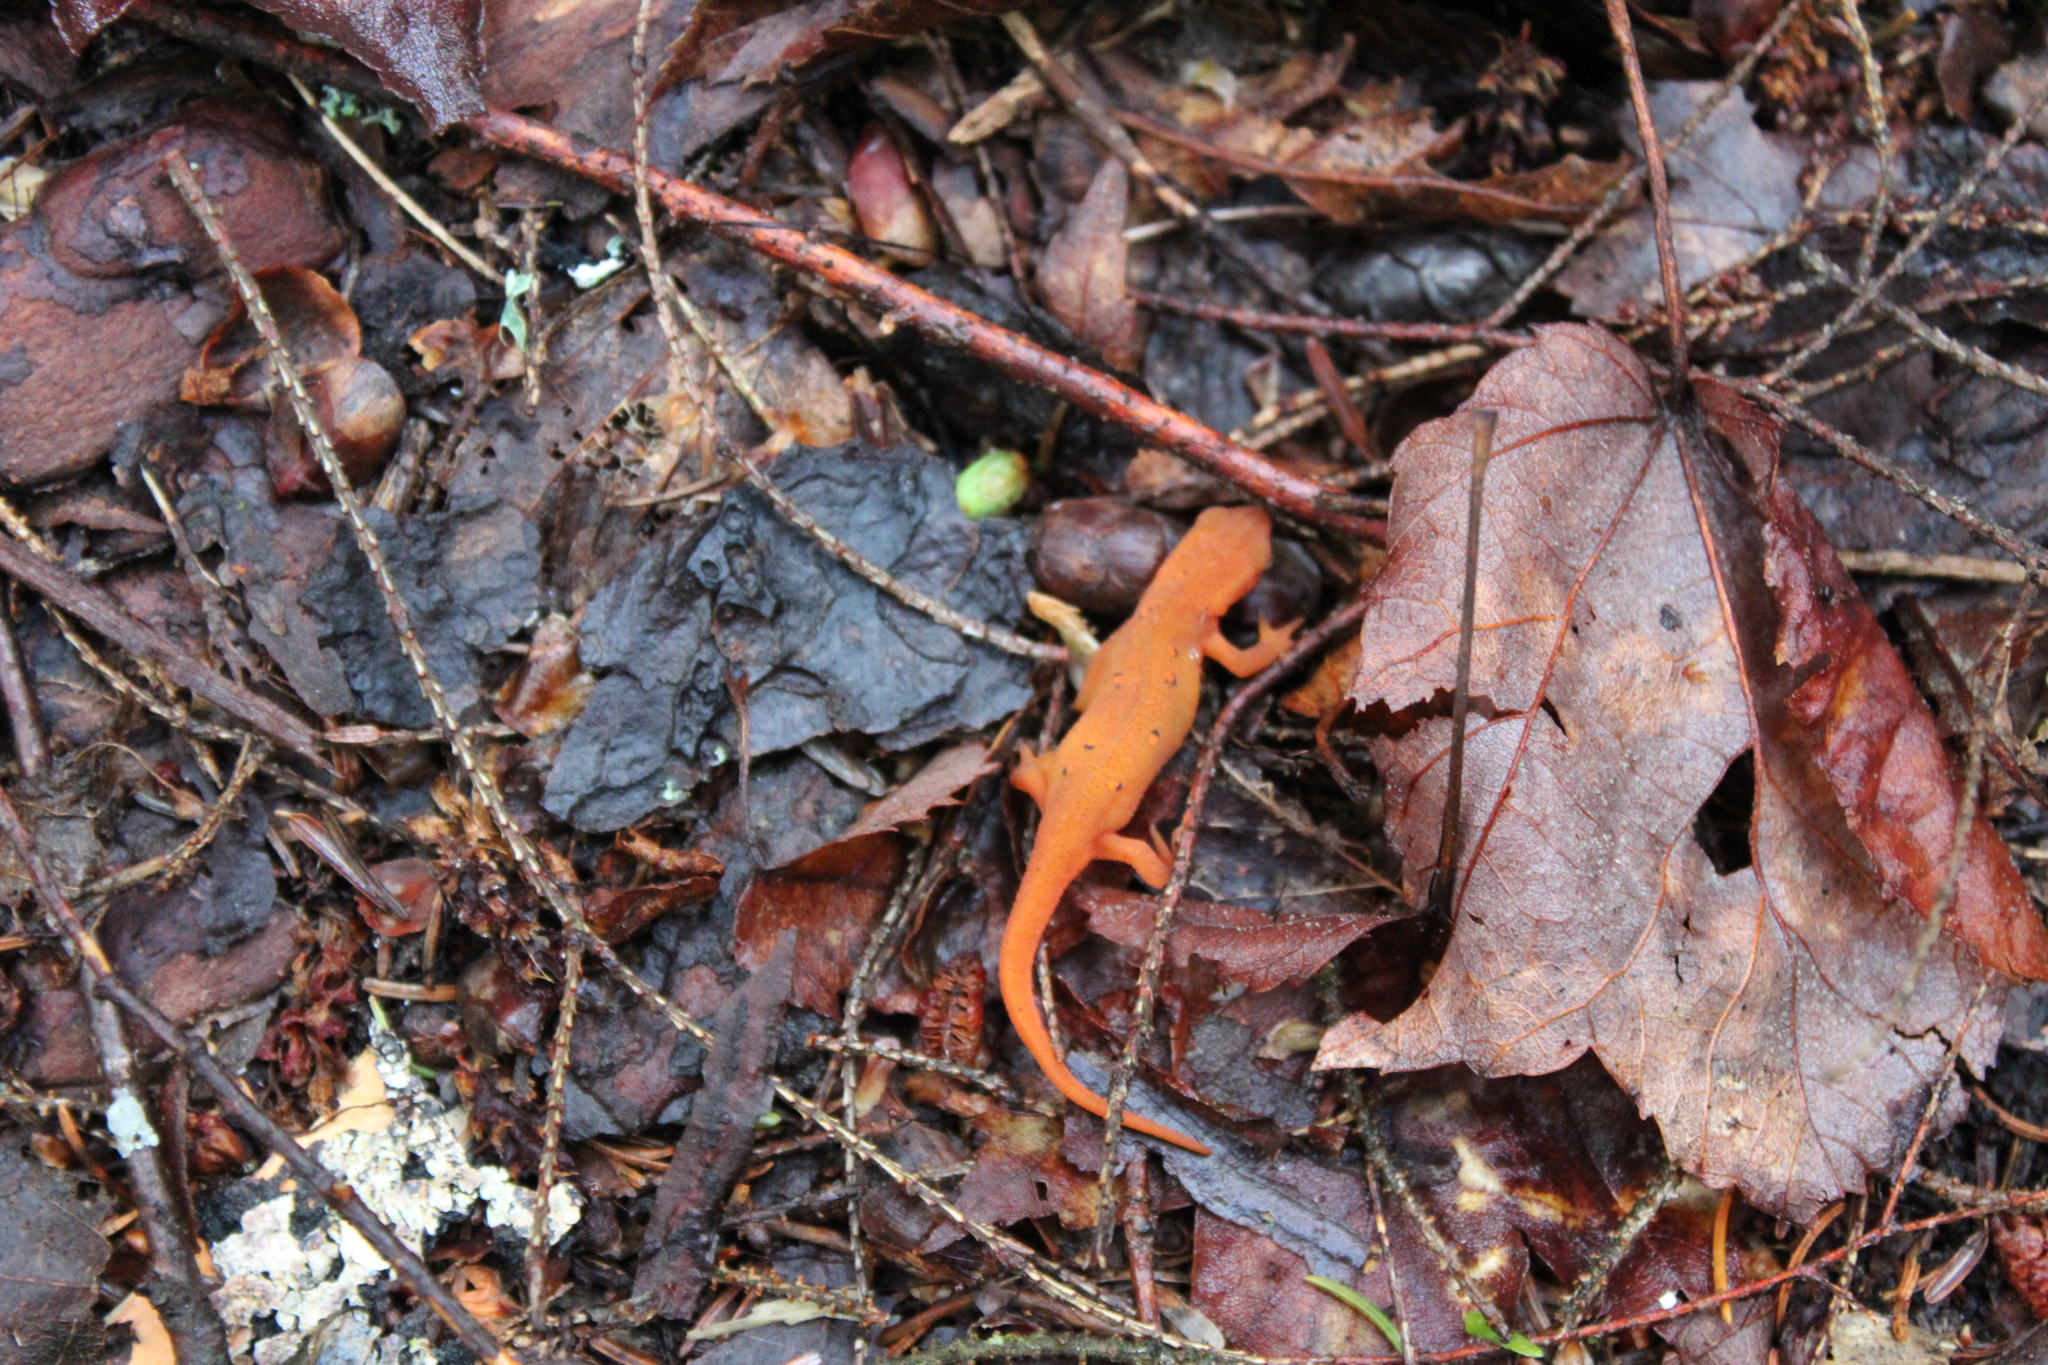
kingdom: Animalia
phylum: Chordata
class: Amphibia
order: Caudata
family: Salamandridae
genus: Notophthalmus
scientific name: Notophthalmus viridescens
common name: Eastern newt
